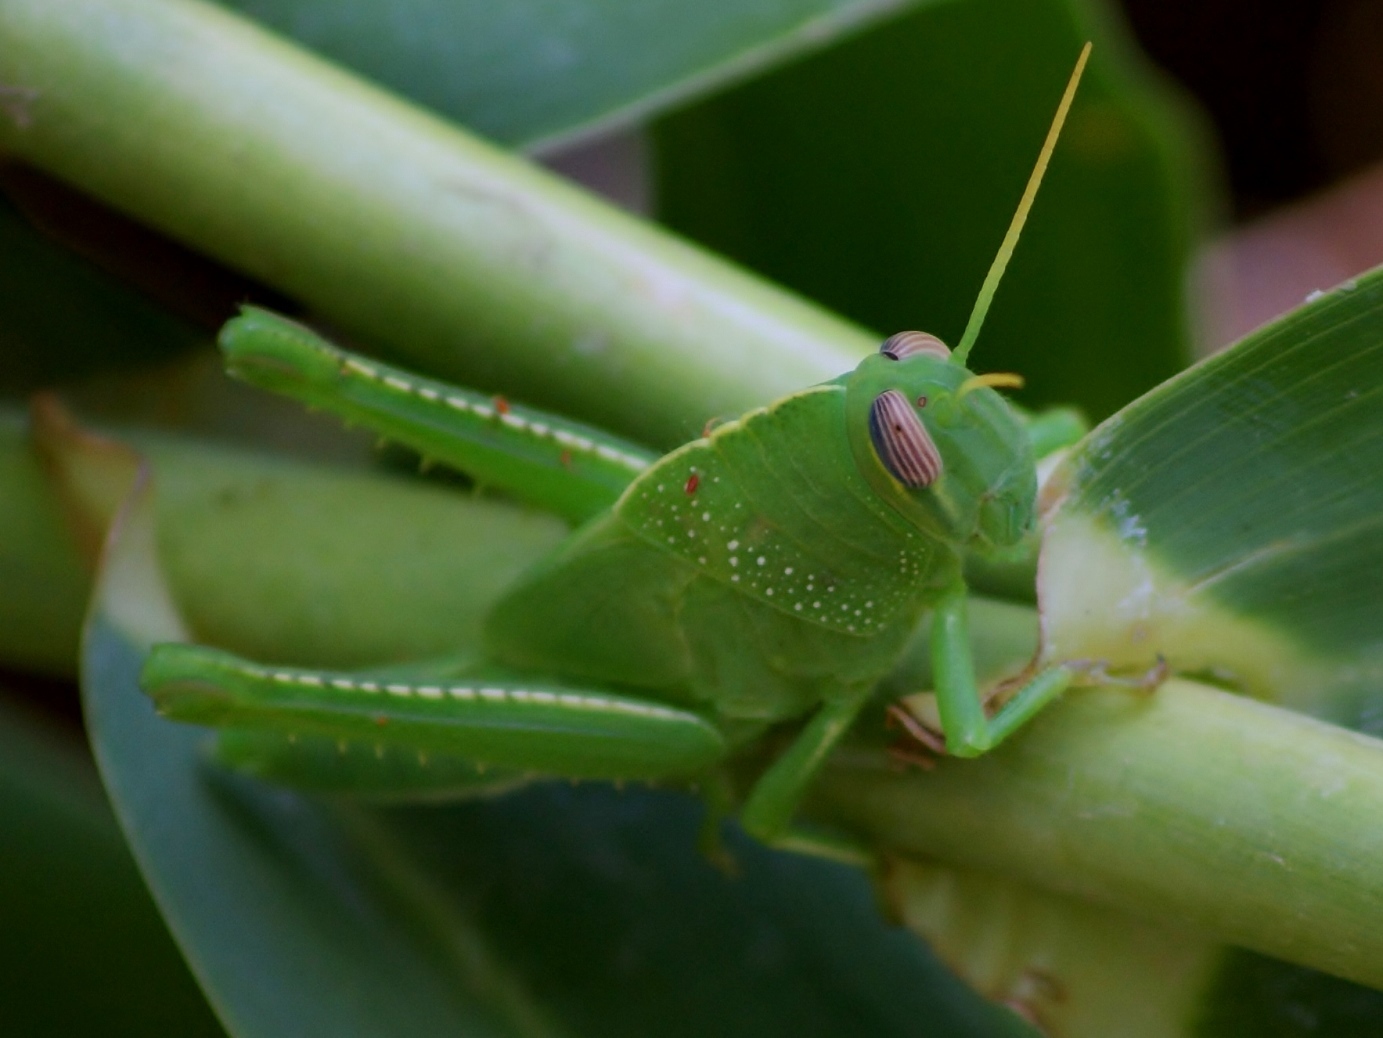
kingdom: Animalia
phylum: Arthropoda
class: Insecta
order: Orthoptera
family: Acrididae
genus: Anacridium
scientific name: Anacridium aegyptium
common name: Egyptian grasshopper
